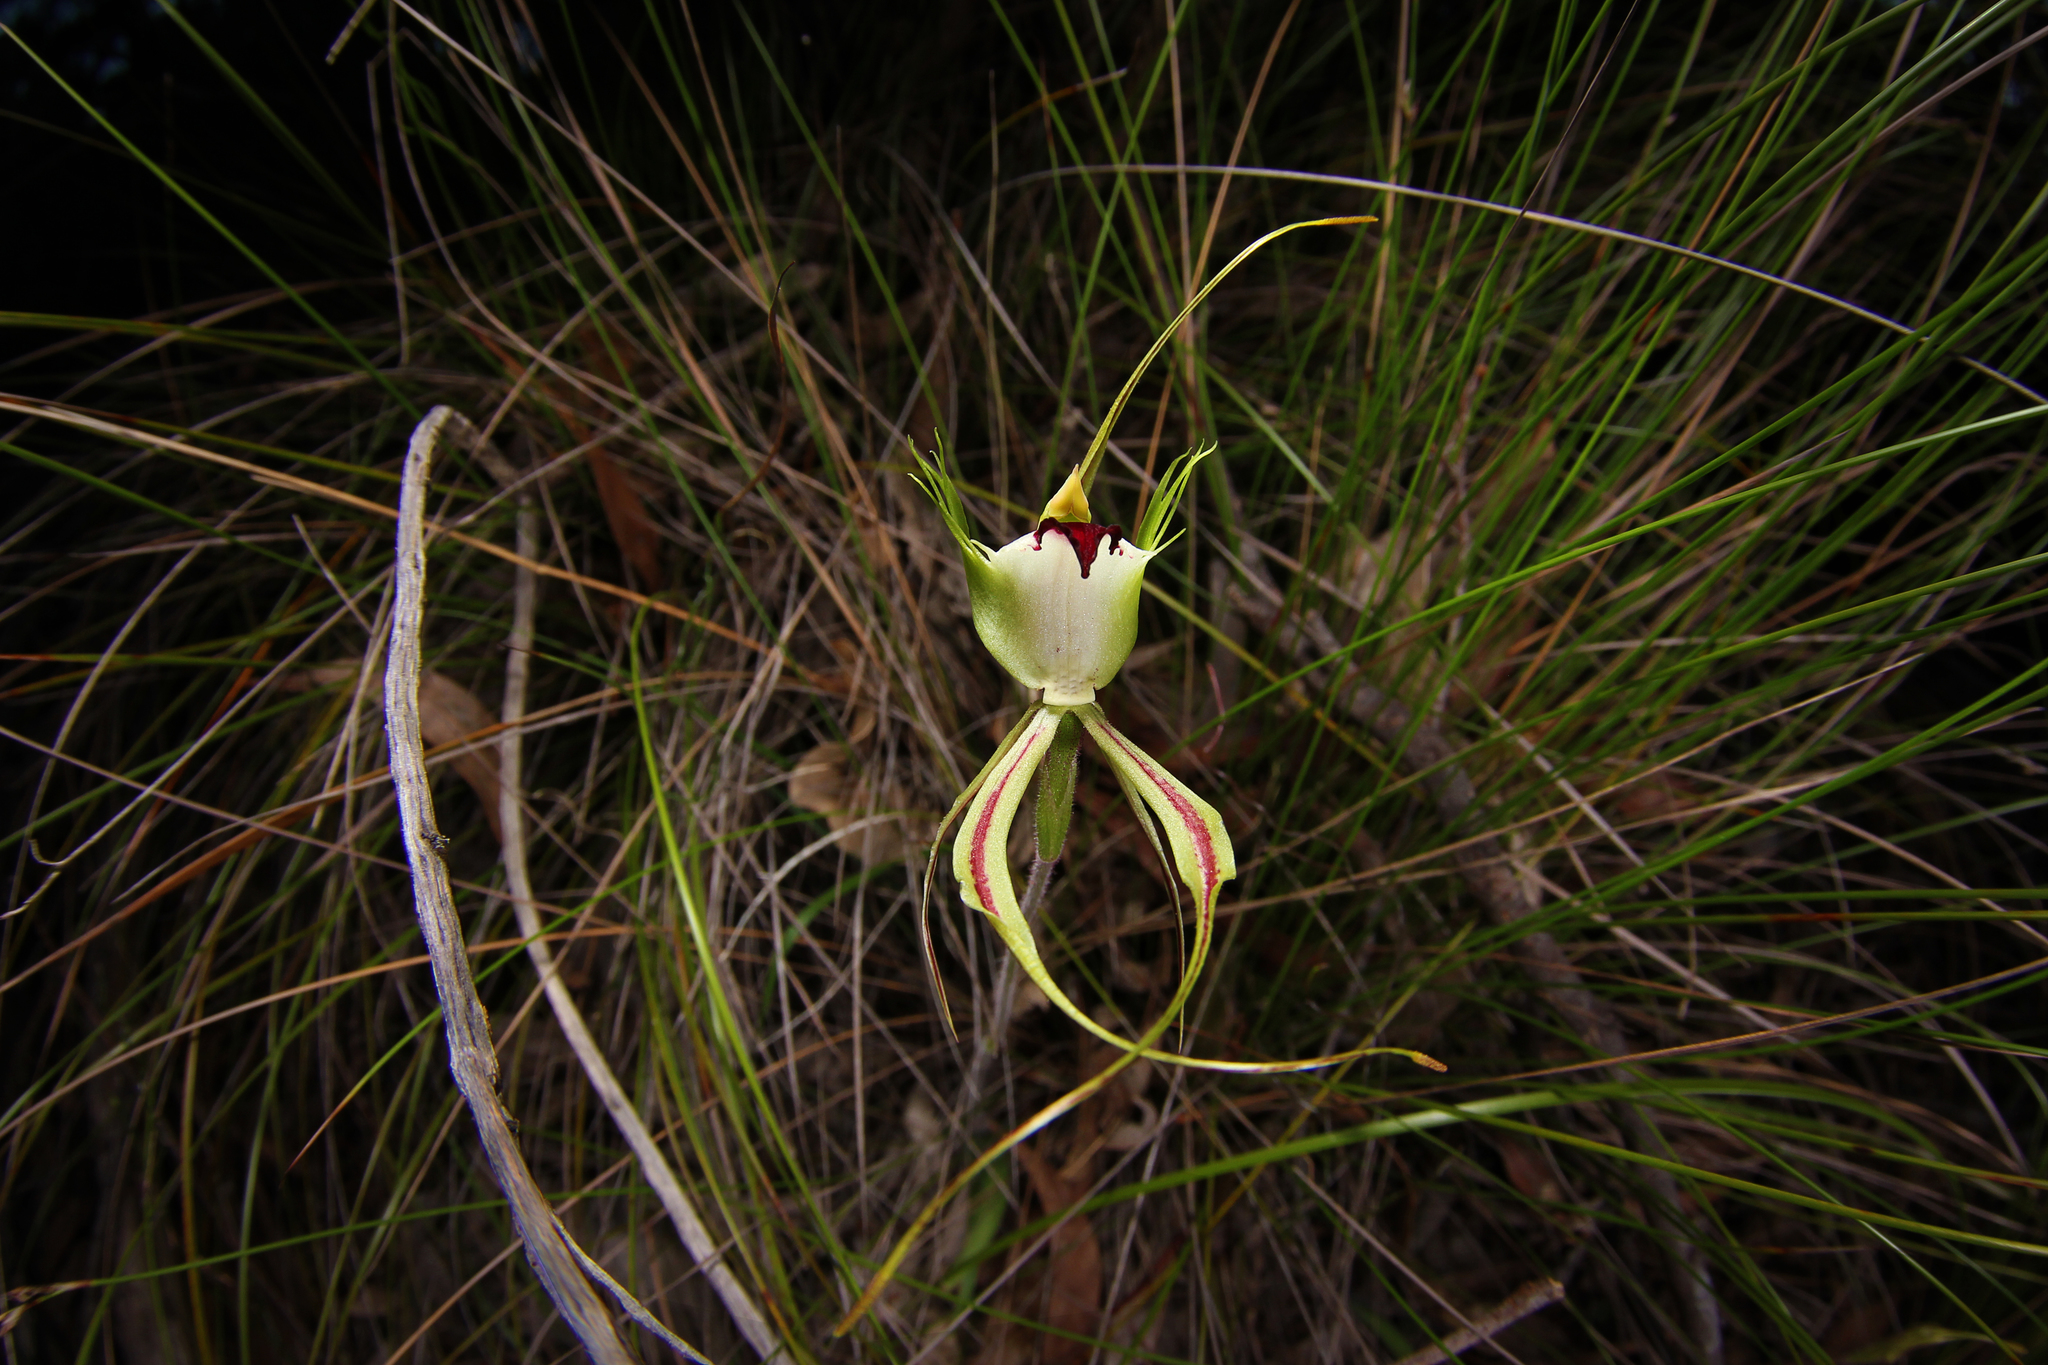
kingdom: Plantae
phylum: Tracheophyta
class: Liliopsida
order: Asparagales
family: Orchidaceae
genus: Caladenia
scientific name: Caladenia tentaculata
